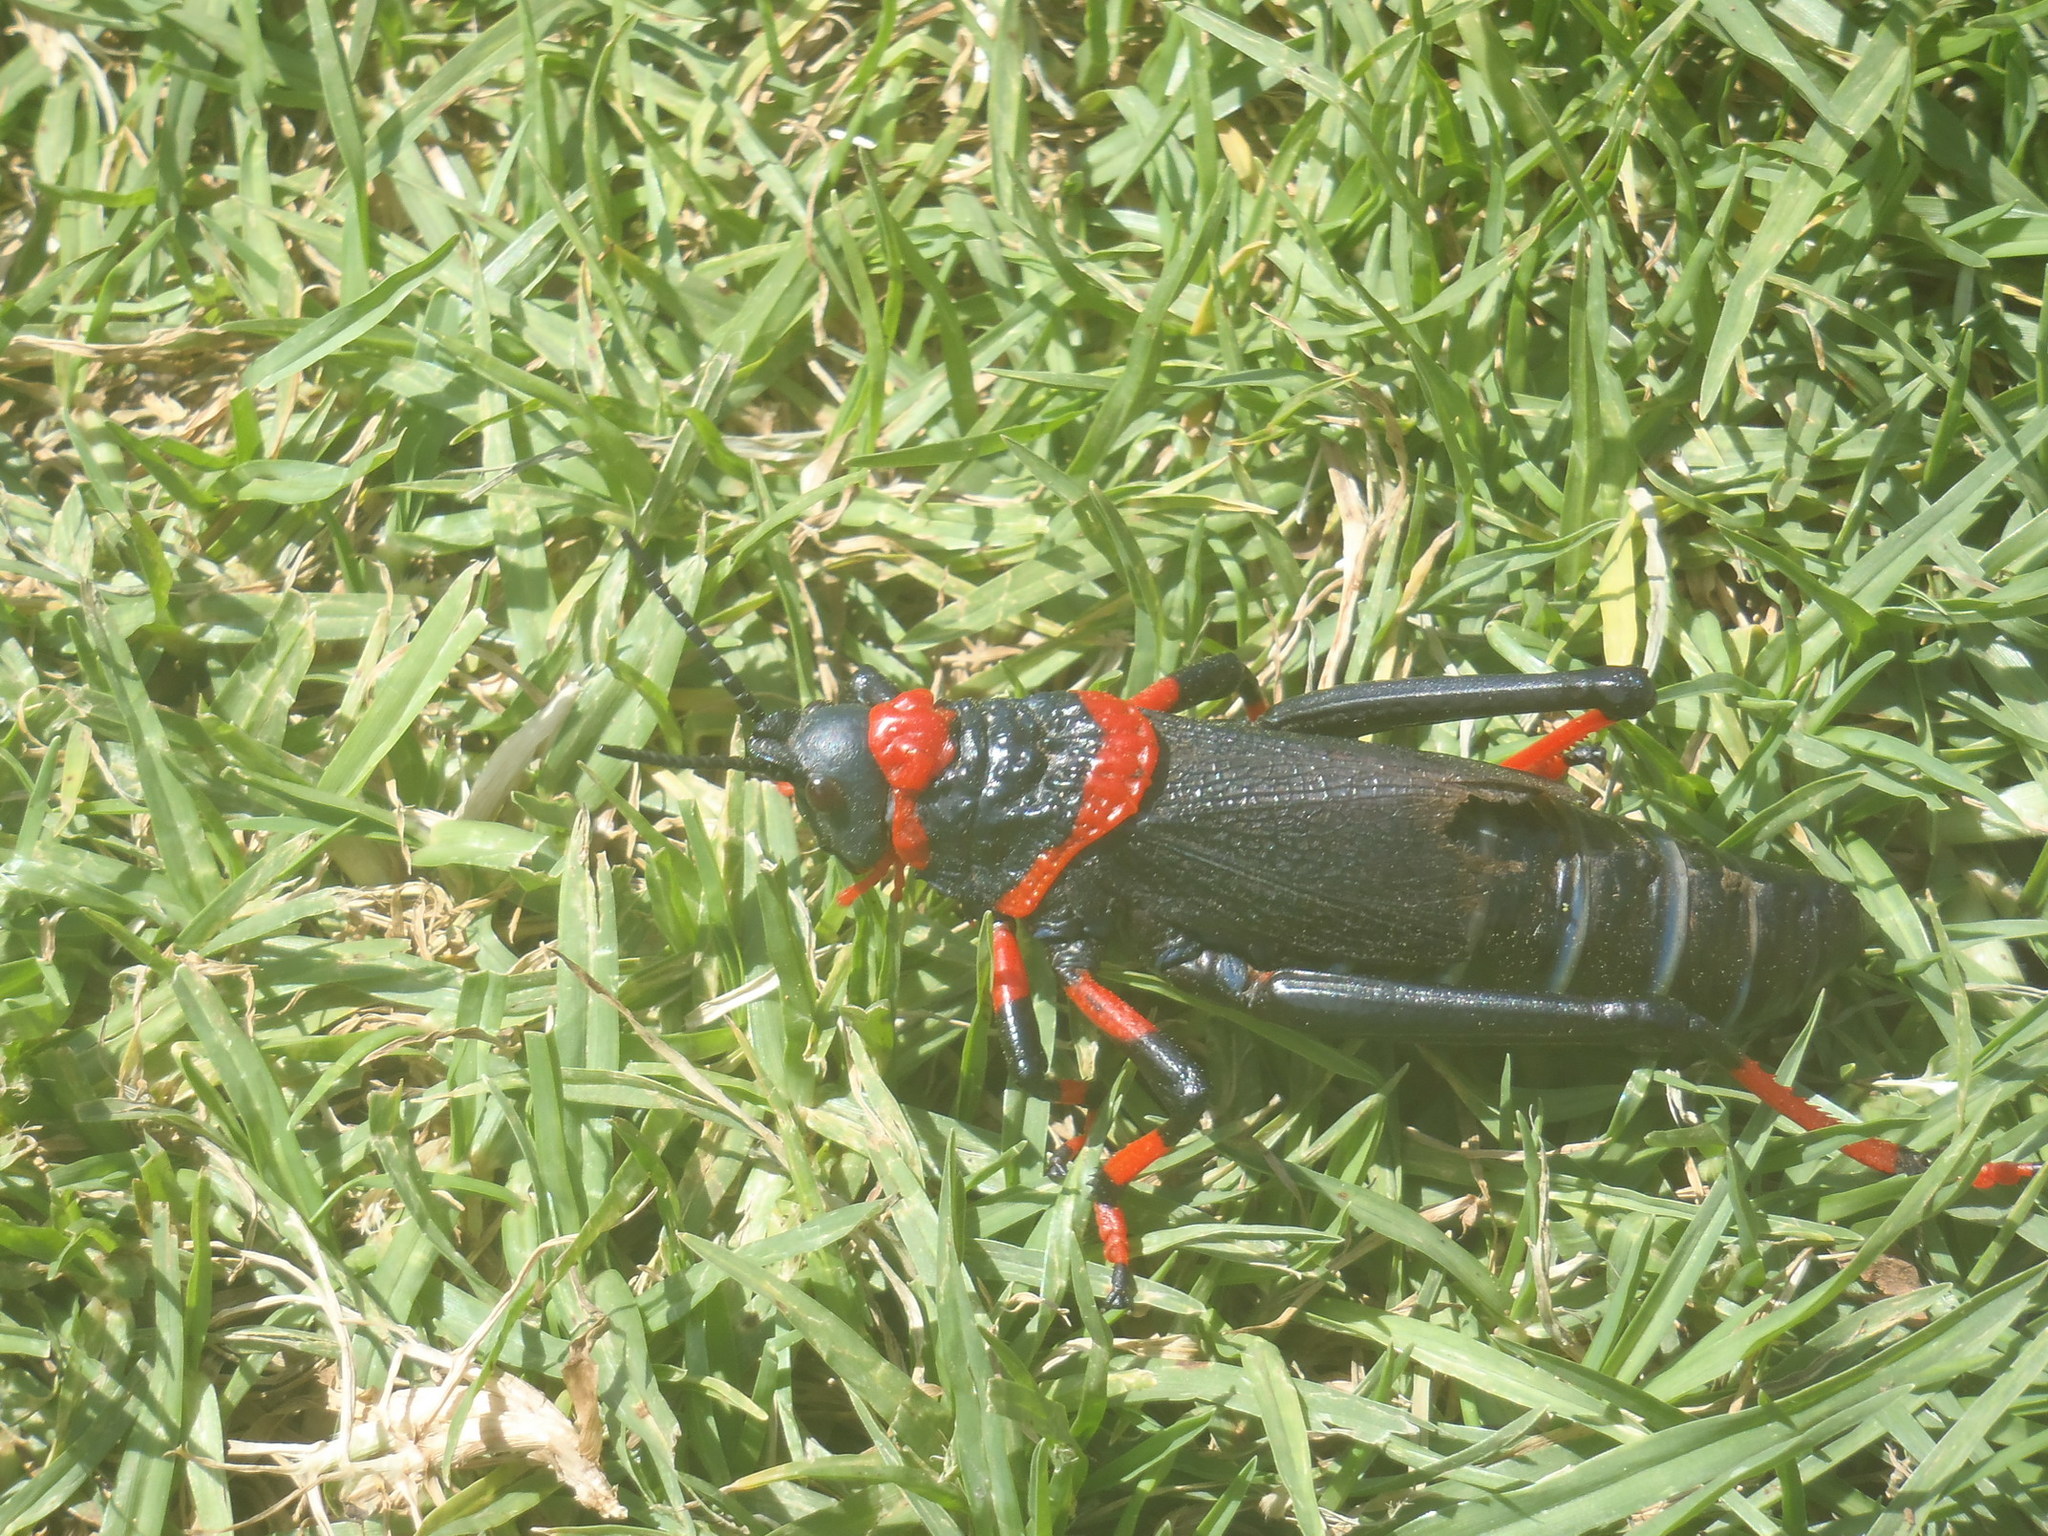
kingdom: Animalia
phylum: Arthropoda
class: Insecta
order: Orthoptera
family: Pyrgomorphidae
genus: Dictyophorus
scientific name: Dictyophorus spumans
